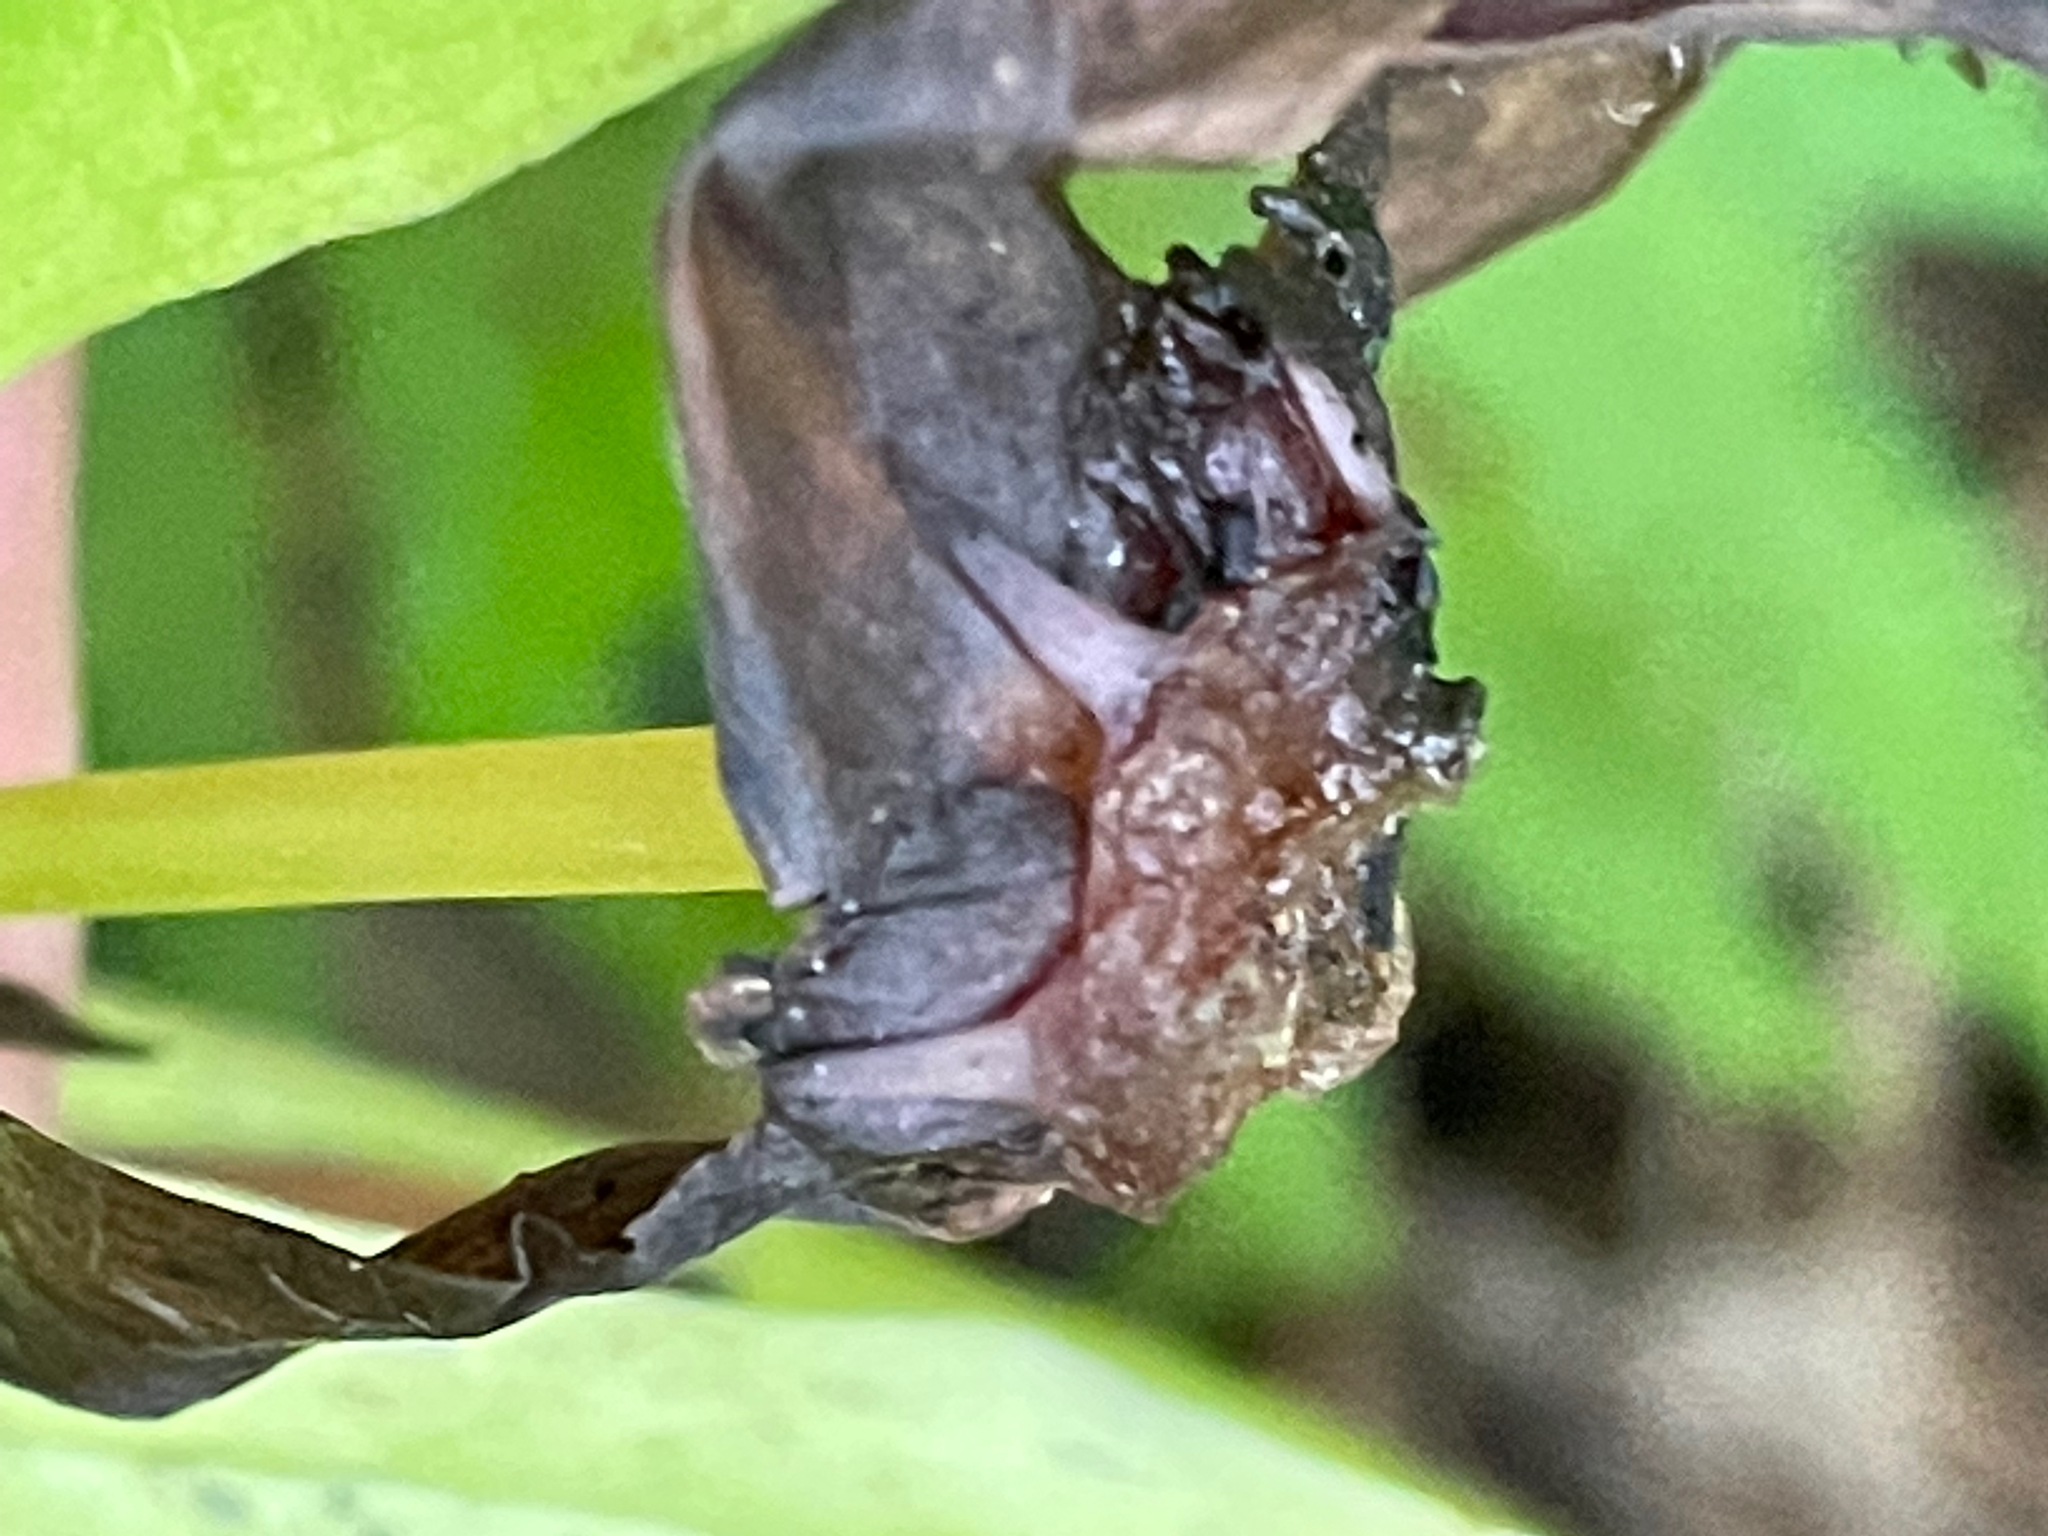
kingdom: Plantae
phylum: Tracheophyta
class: Liliopsida
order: Liliales
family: Melanthiaceae
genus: Trillium
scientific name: Trillium erectum
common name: Purple trillium
